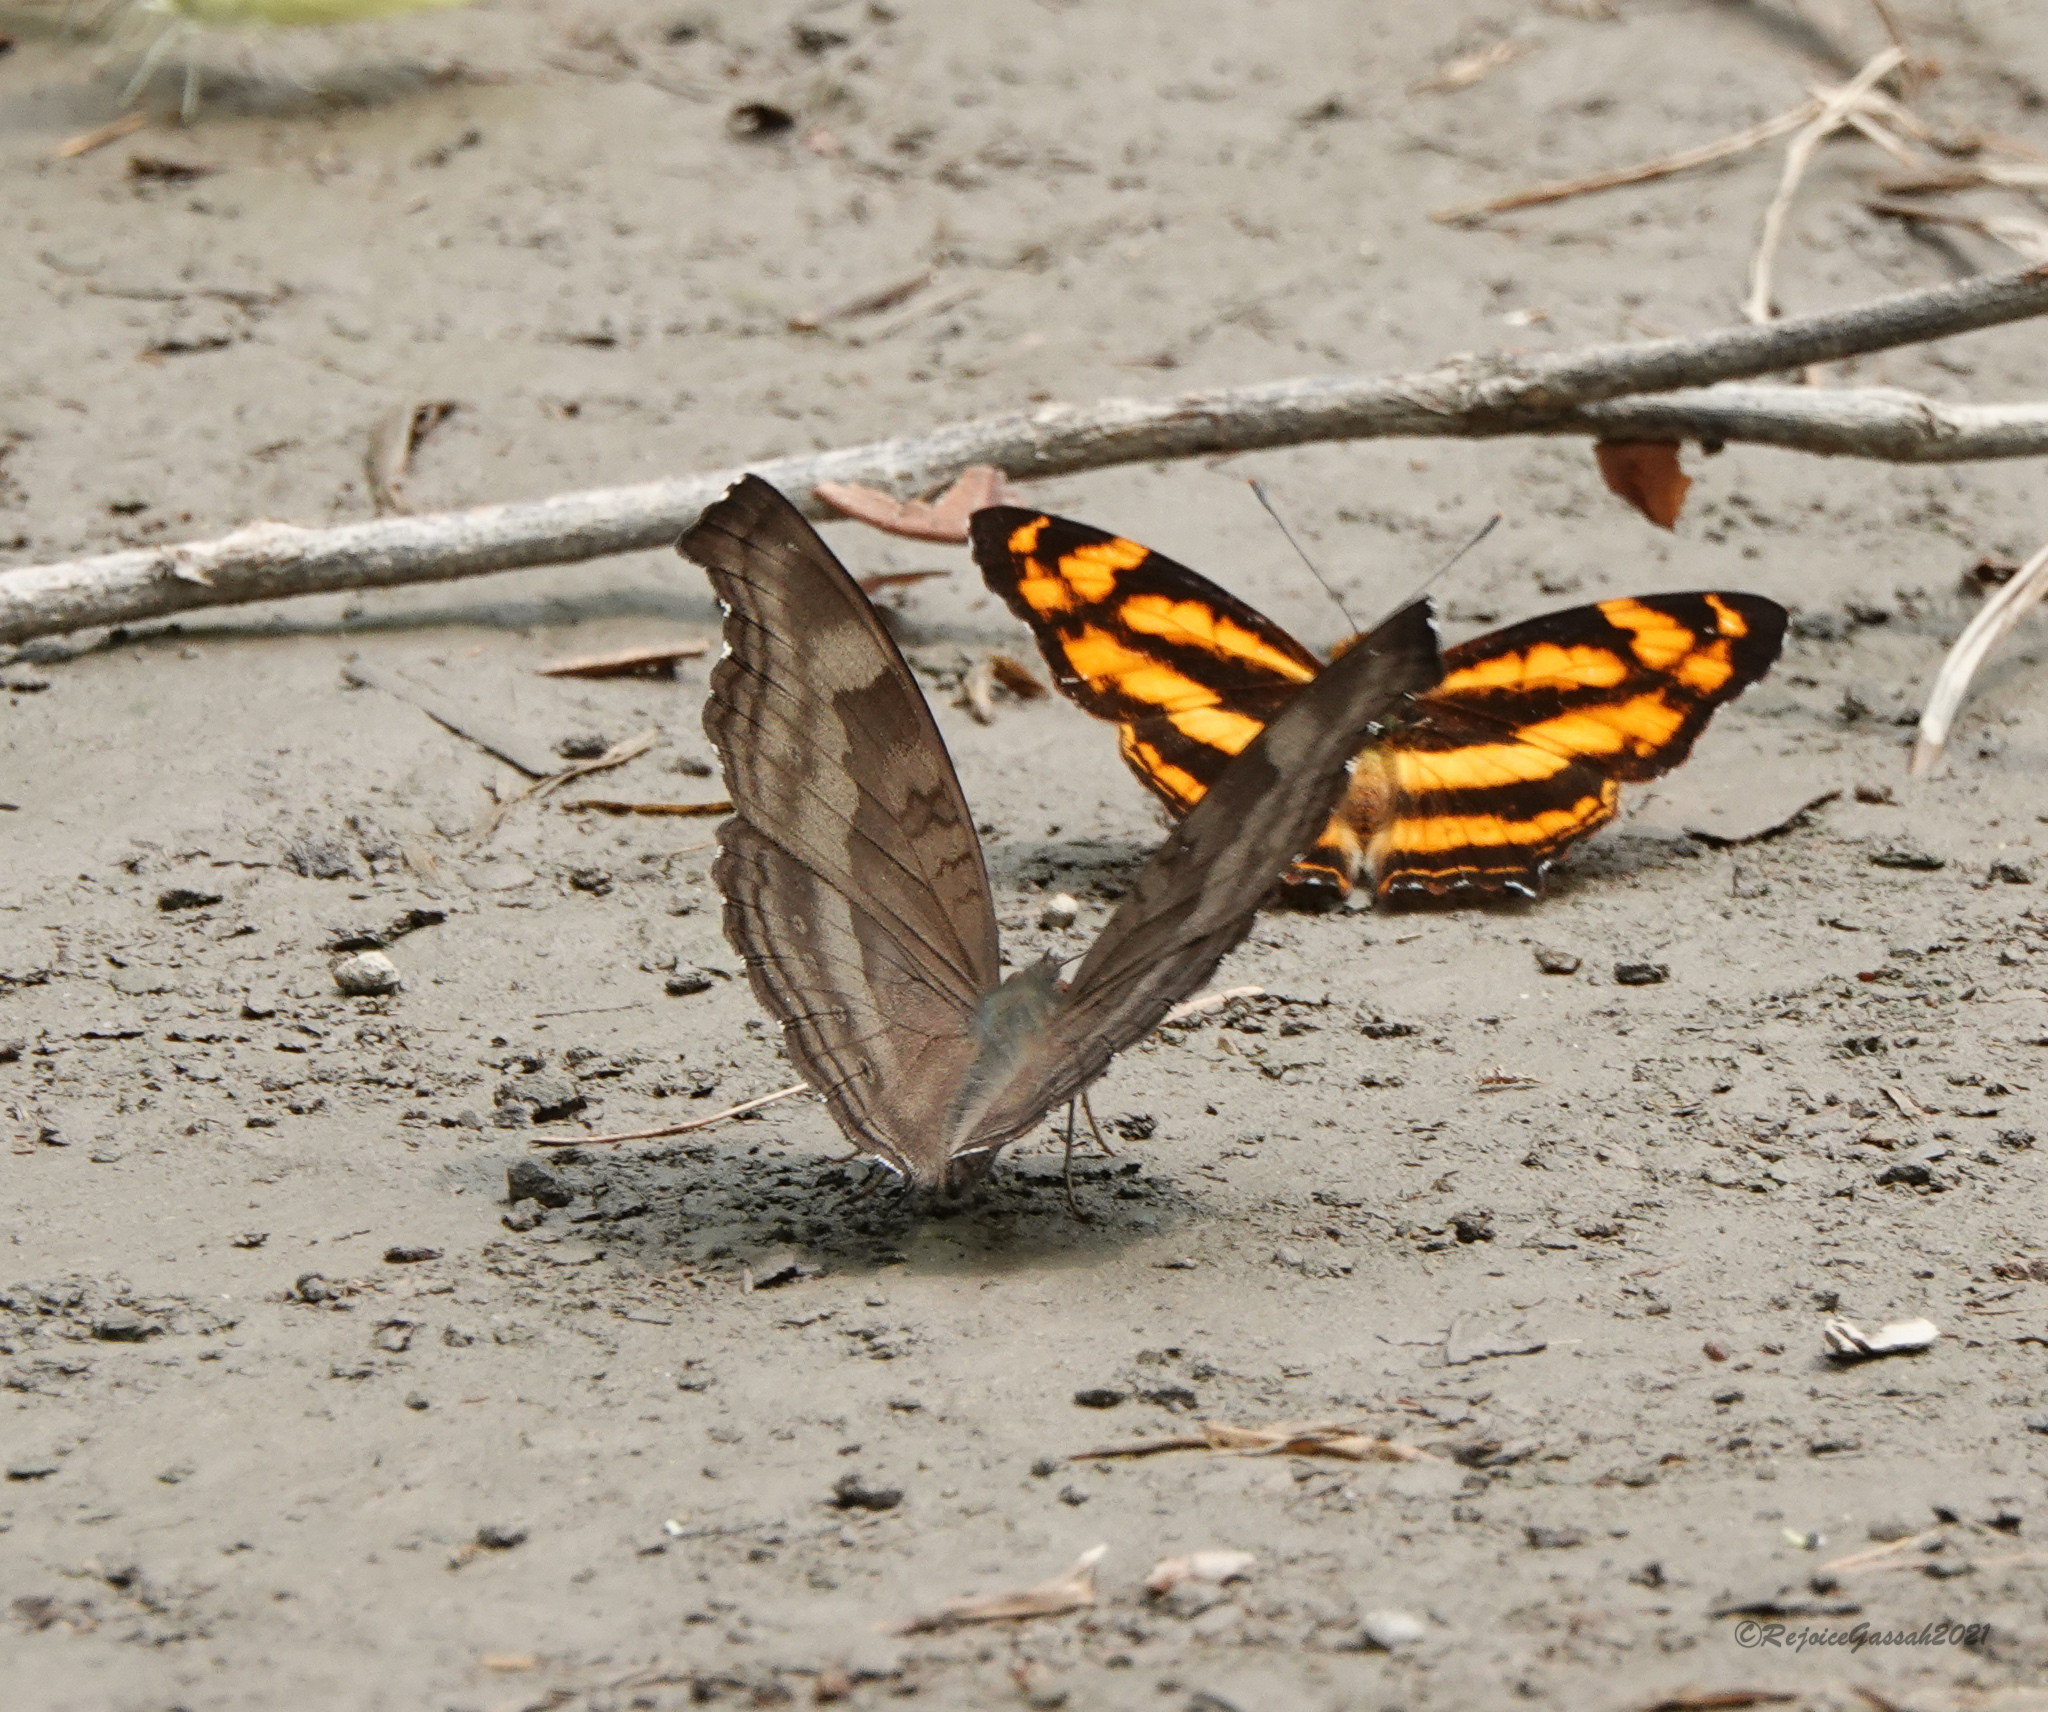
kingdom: Animalia
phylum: Arthropoda
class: Insecta
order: Lepidoptera
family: Nymphalidae
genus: Junonia
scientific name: Junonia iphita
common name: Chocolate pansy
